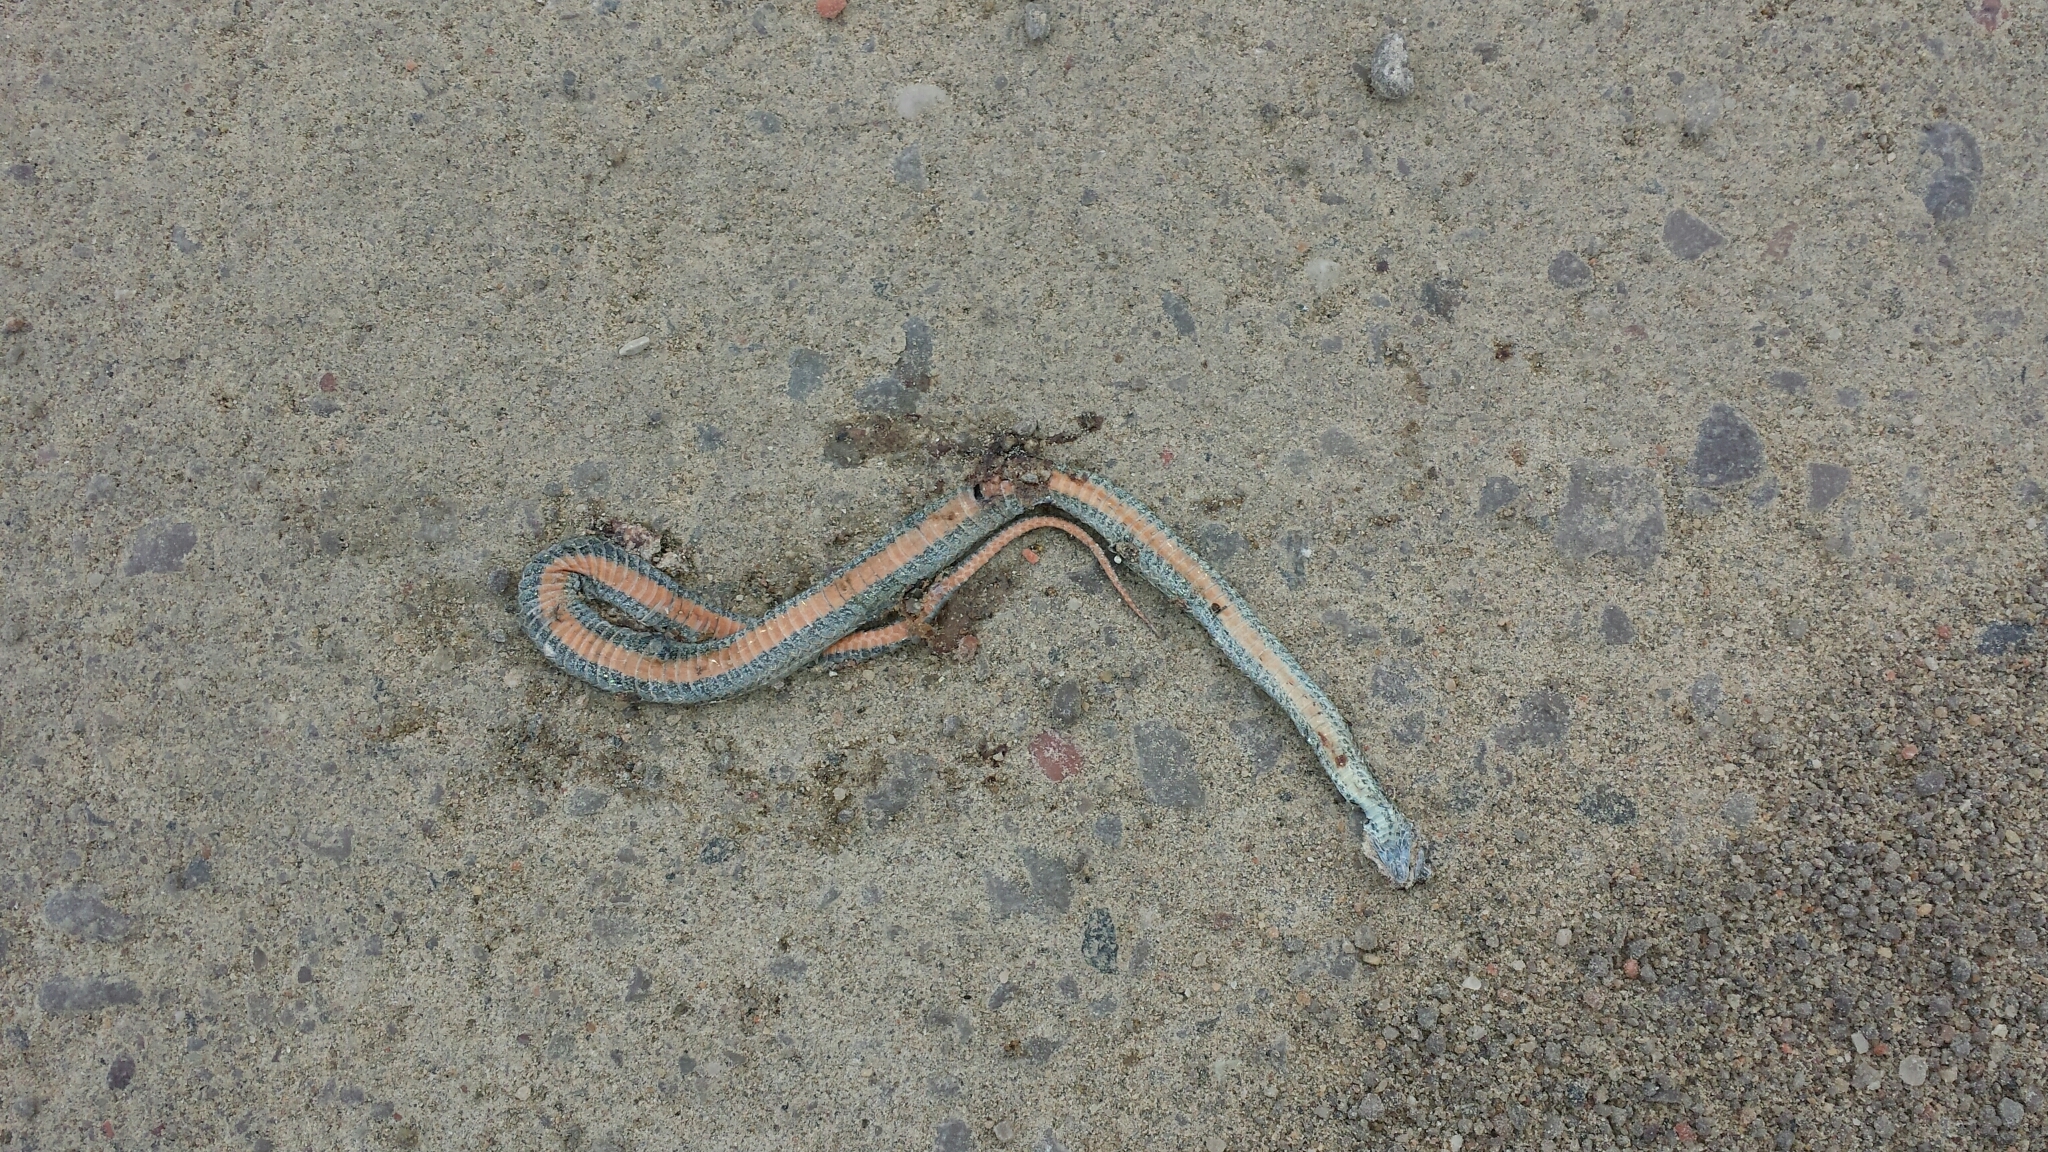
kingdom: Animalia
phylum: Chordata
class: Squamata
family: Colubridae
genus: Storeria
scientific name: Storeria occipitomaculata
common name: Redbelly snake
